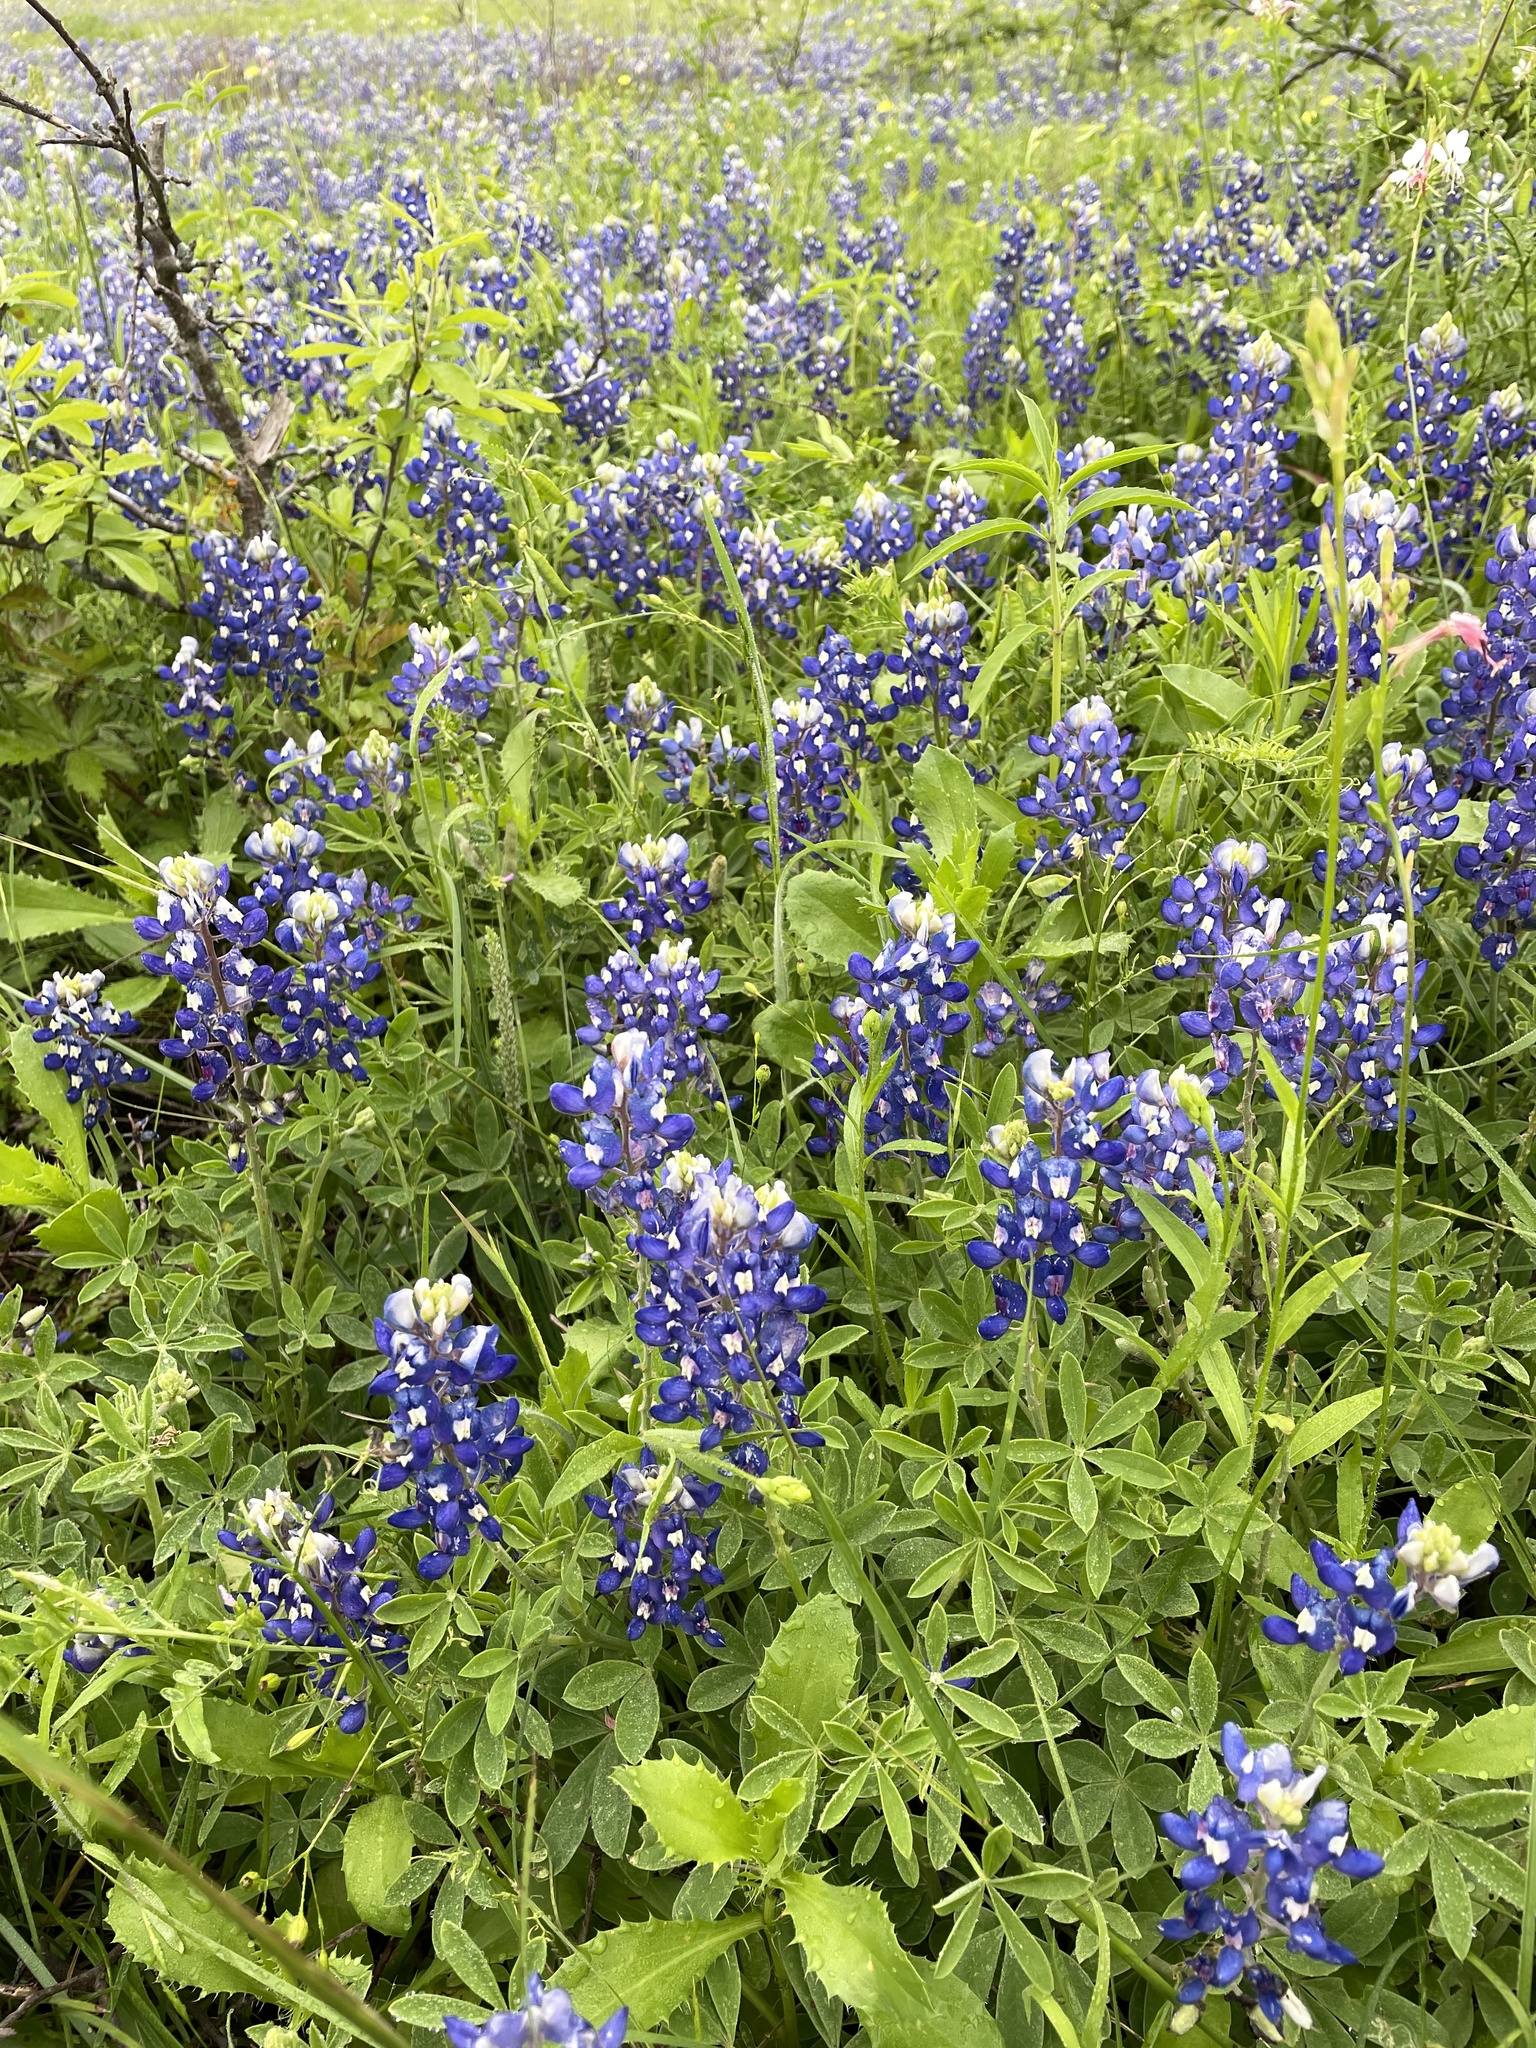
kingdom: Plantae
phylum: Tracheophyta
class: Magnoliopsida
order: Fabales
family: Fabaceae
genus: Lupinus
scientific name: Lupinus texensis
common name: Texas bluebonnet
